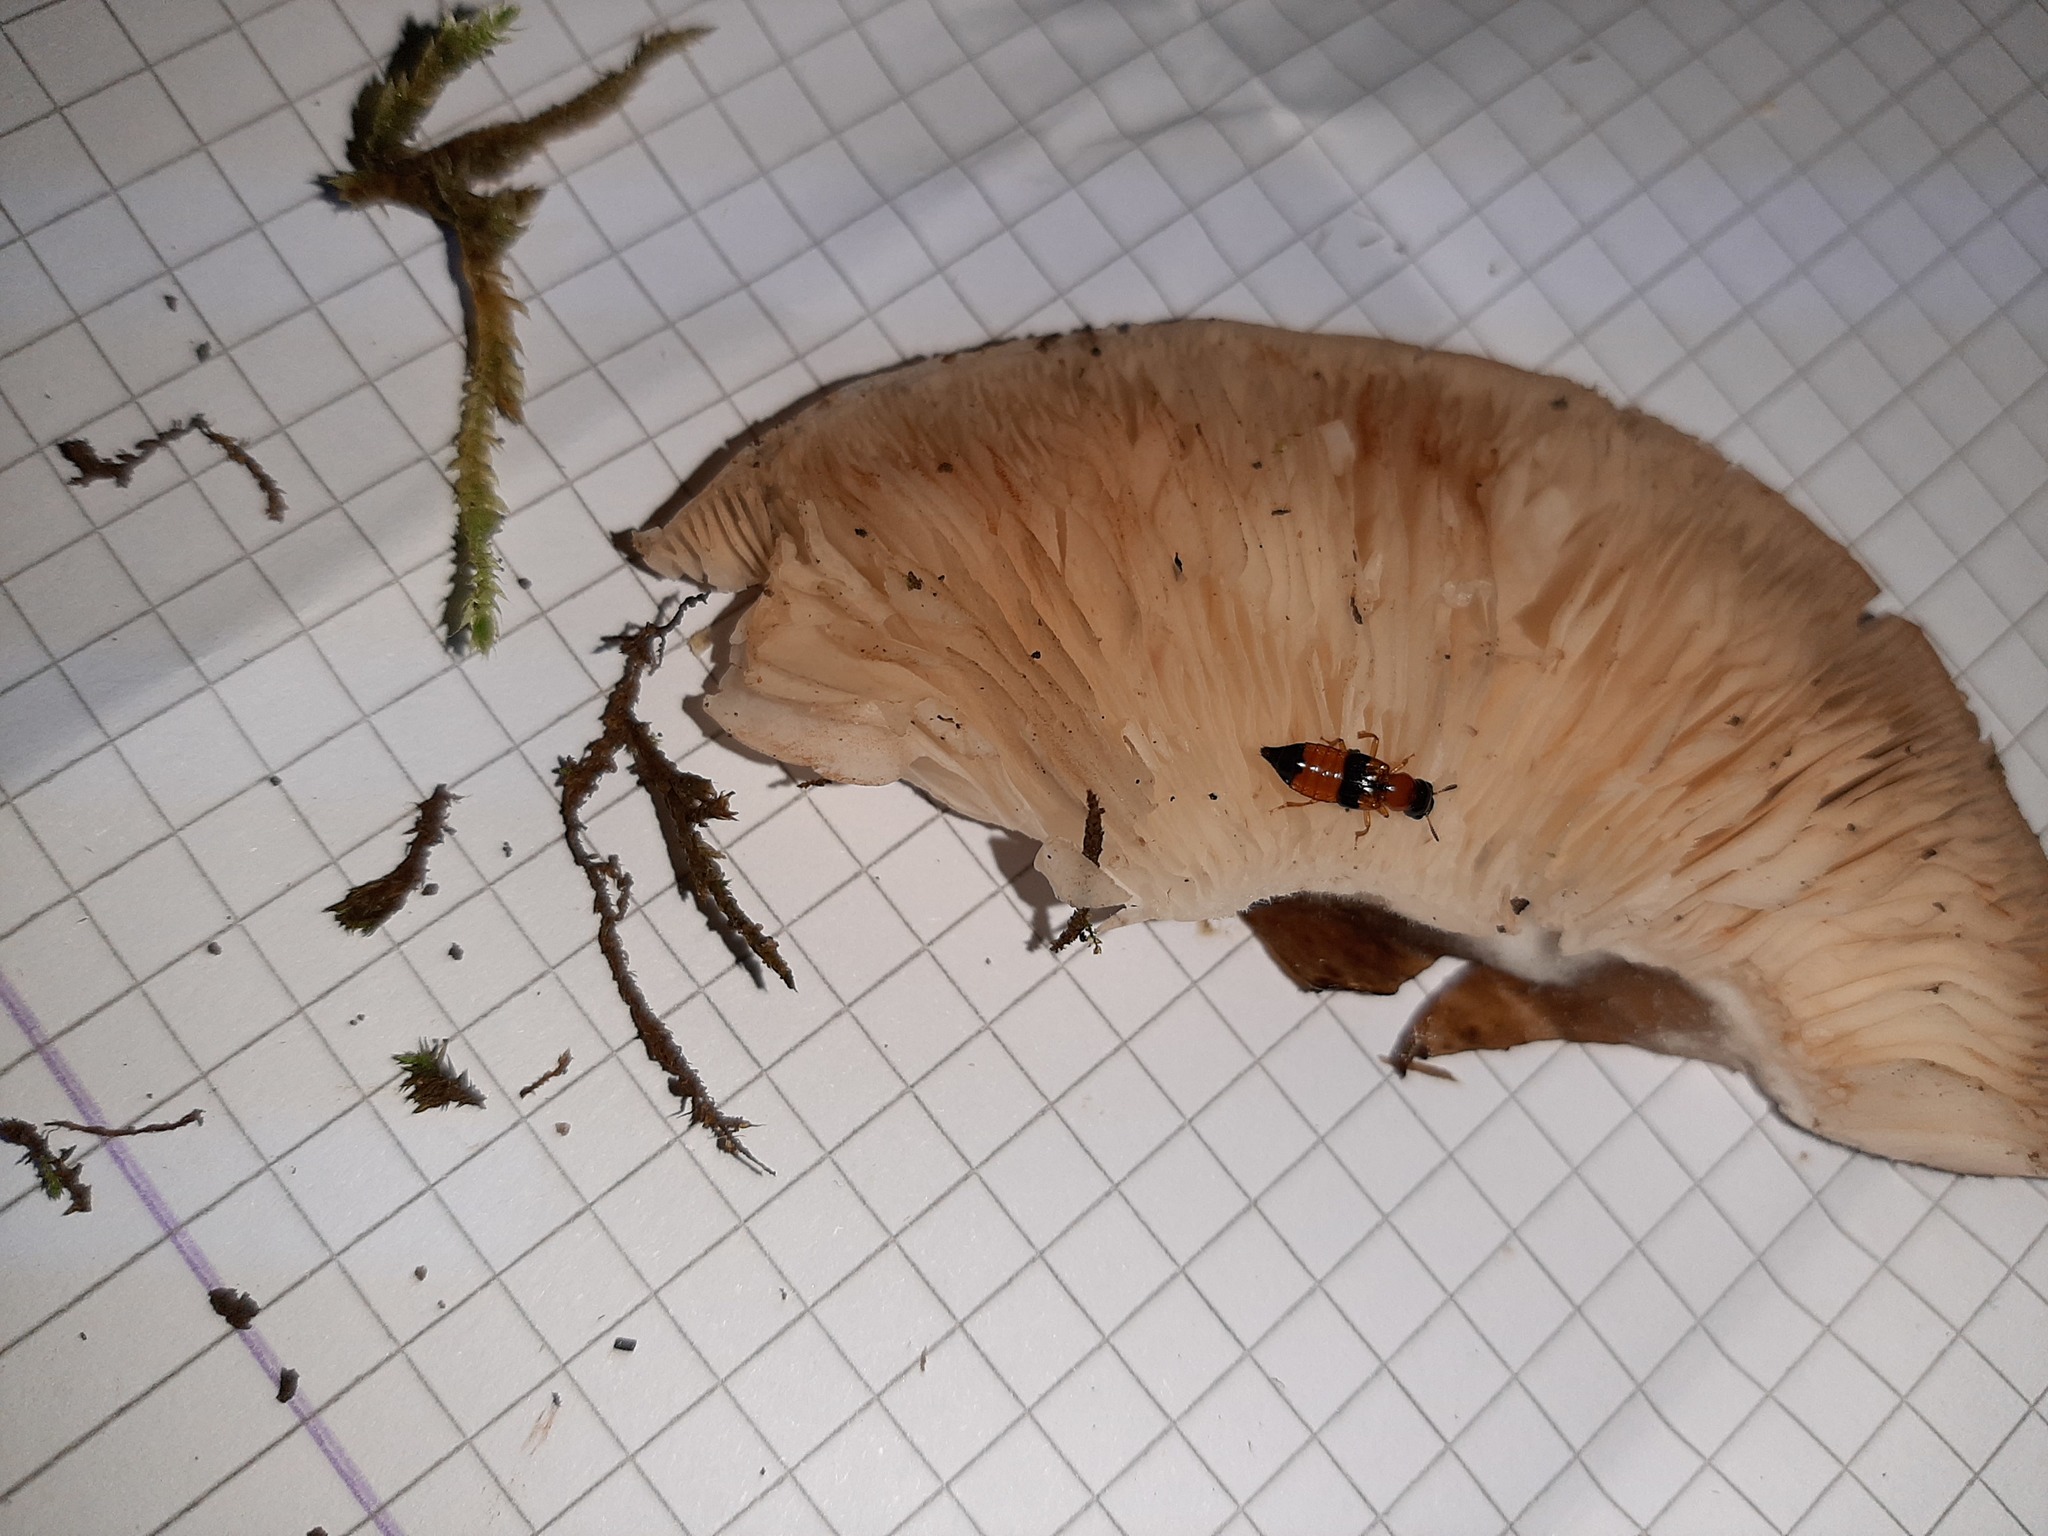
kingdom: Animalia
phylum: Arthropoda
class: Insecta
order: Coleoptera
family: Staphylinidae
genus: Oxyporus
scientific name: Oxyporus rufus
